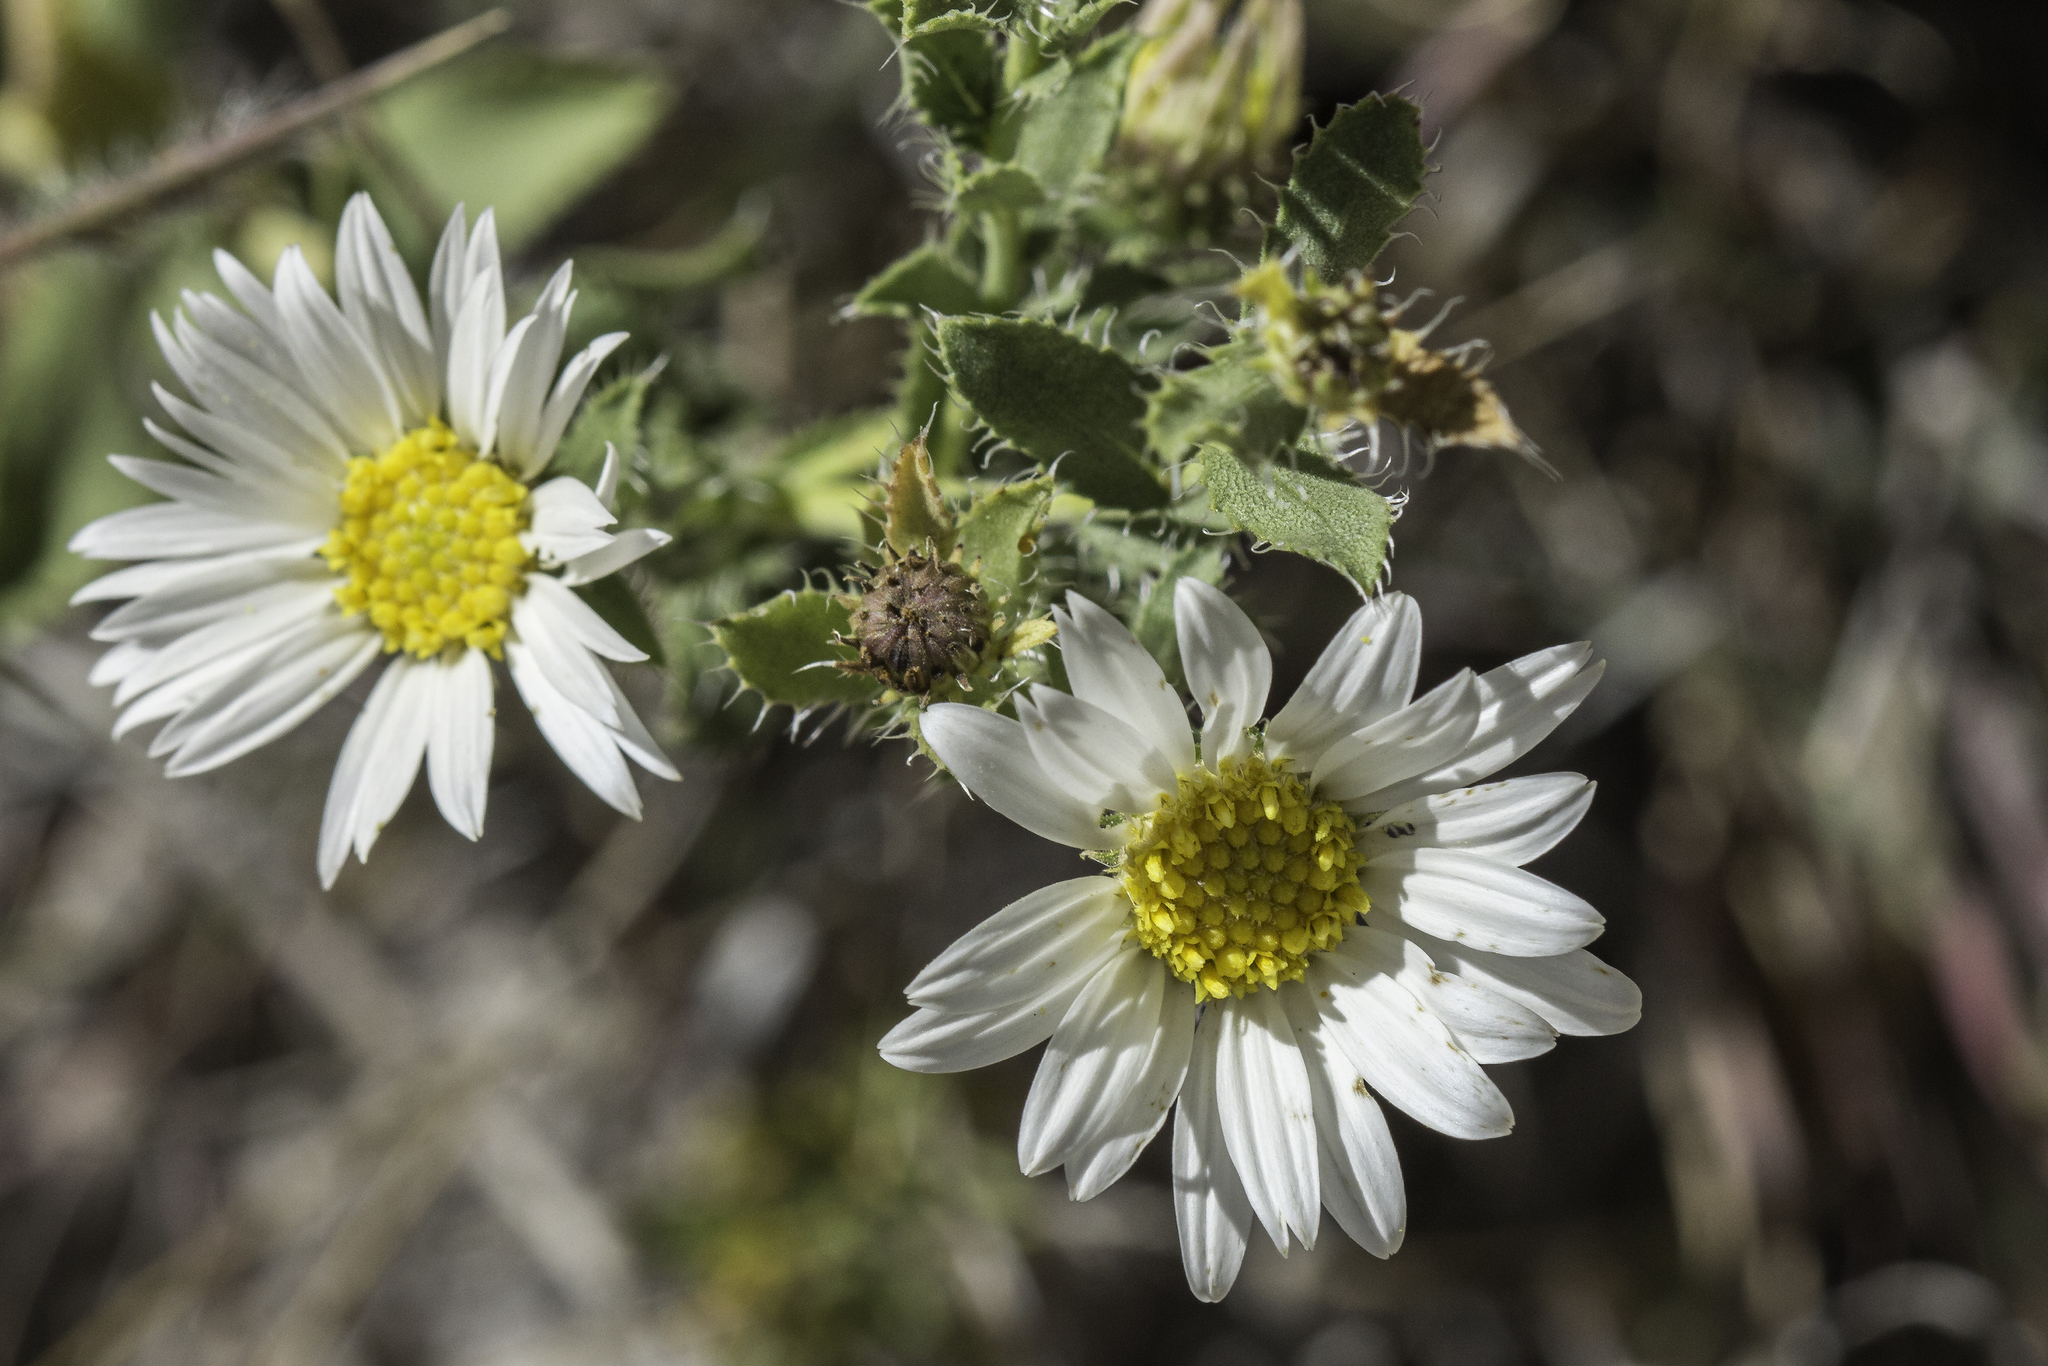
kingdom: Plantae
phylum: Tracheophyta
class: Magnoliopsida
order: Asterales
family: Asteraceae
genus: Xanthisma
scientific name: Xanthisma blephariphyllum
